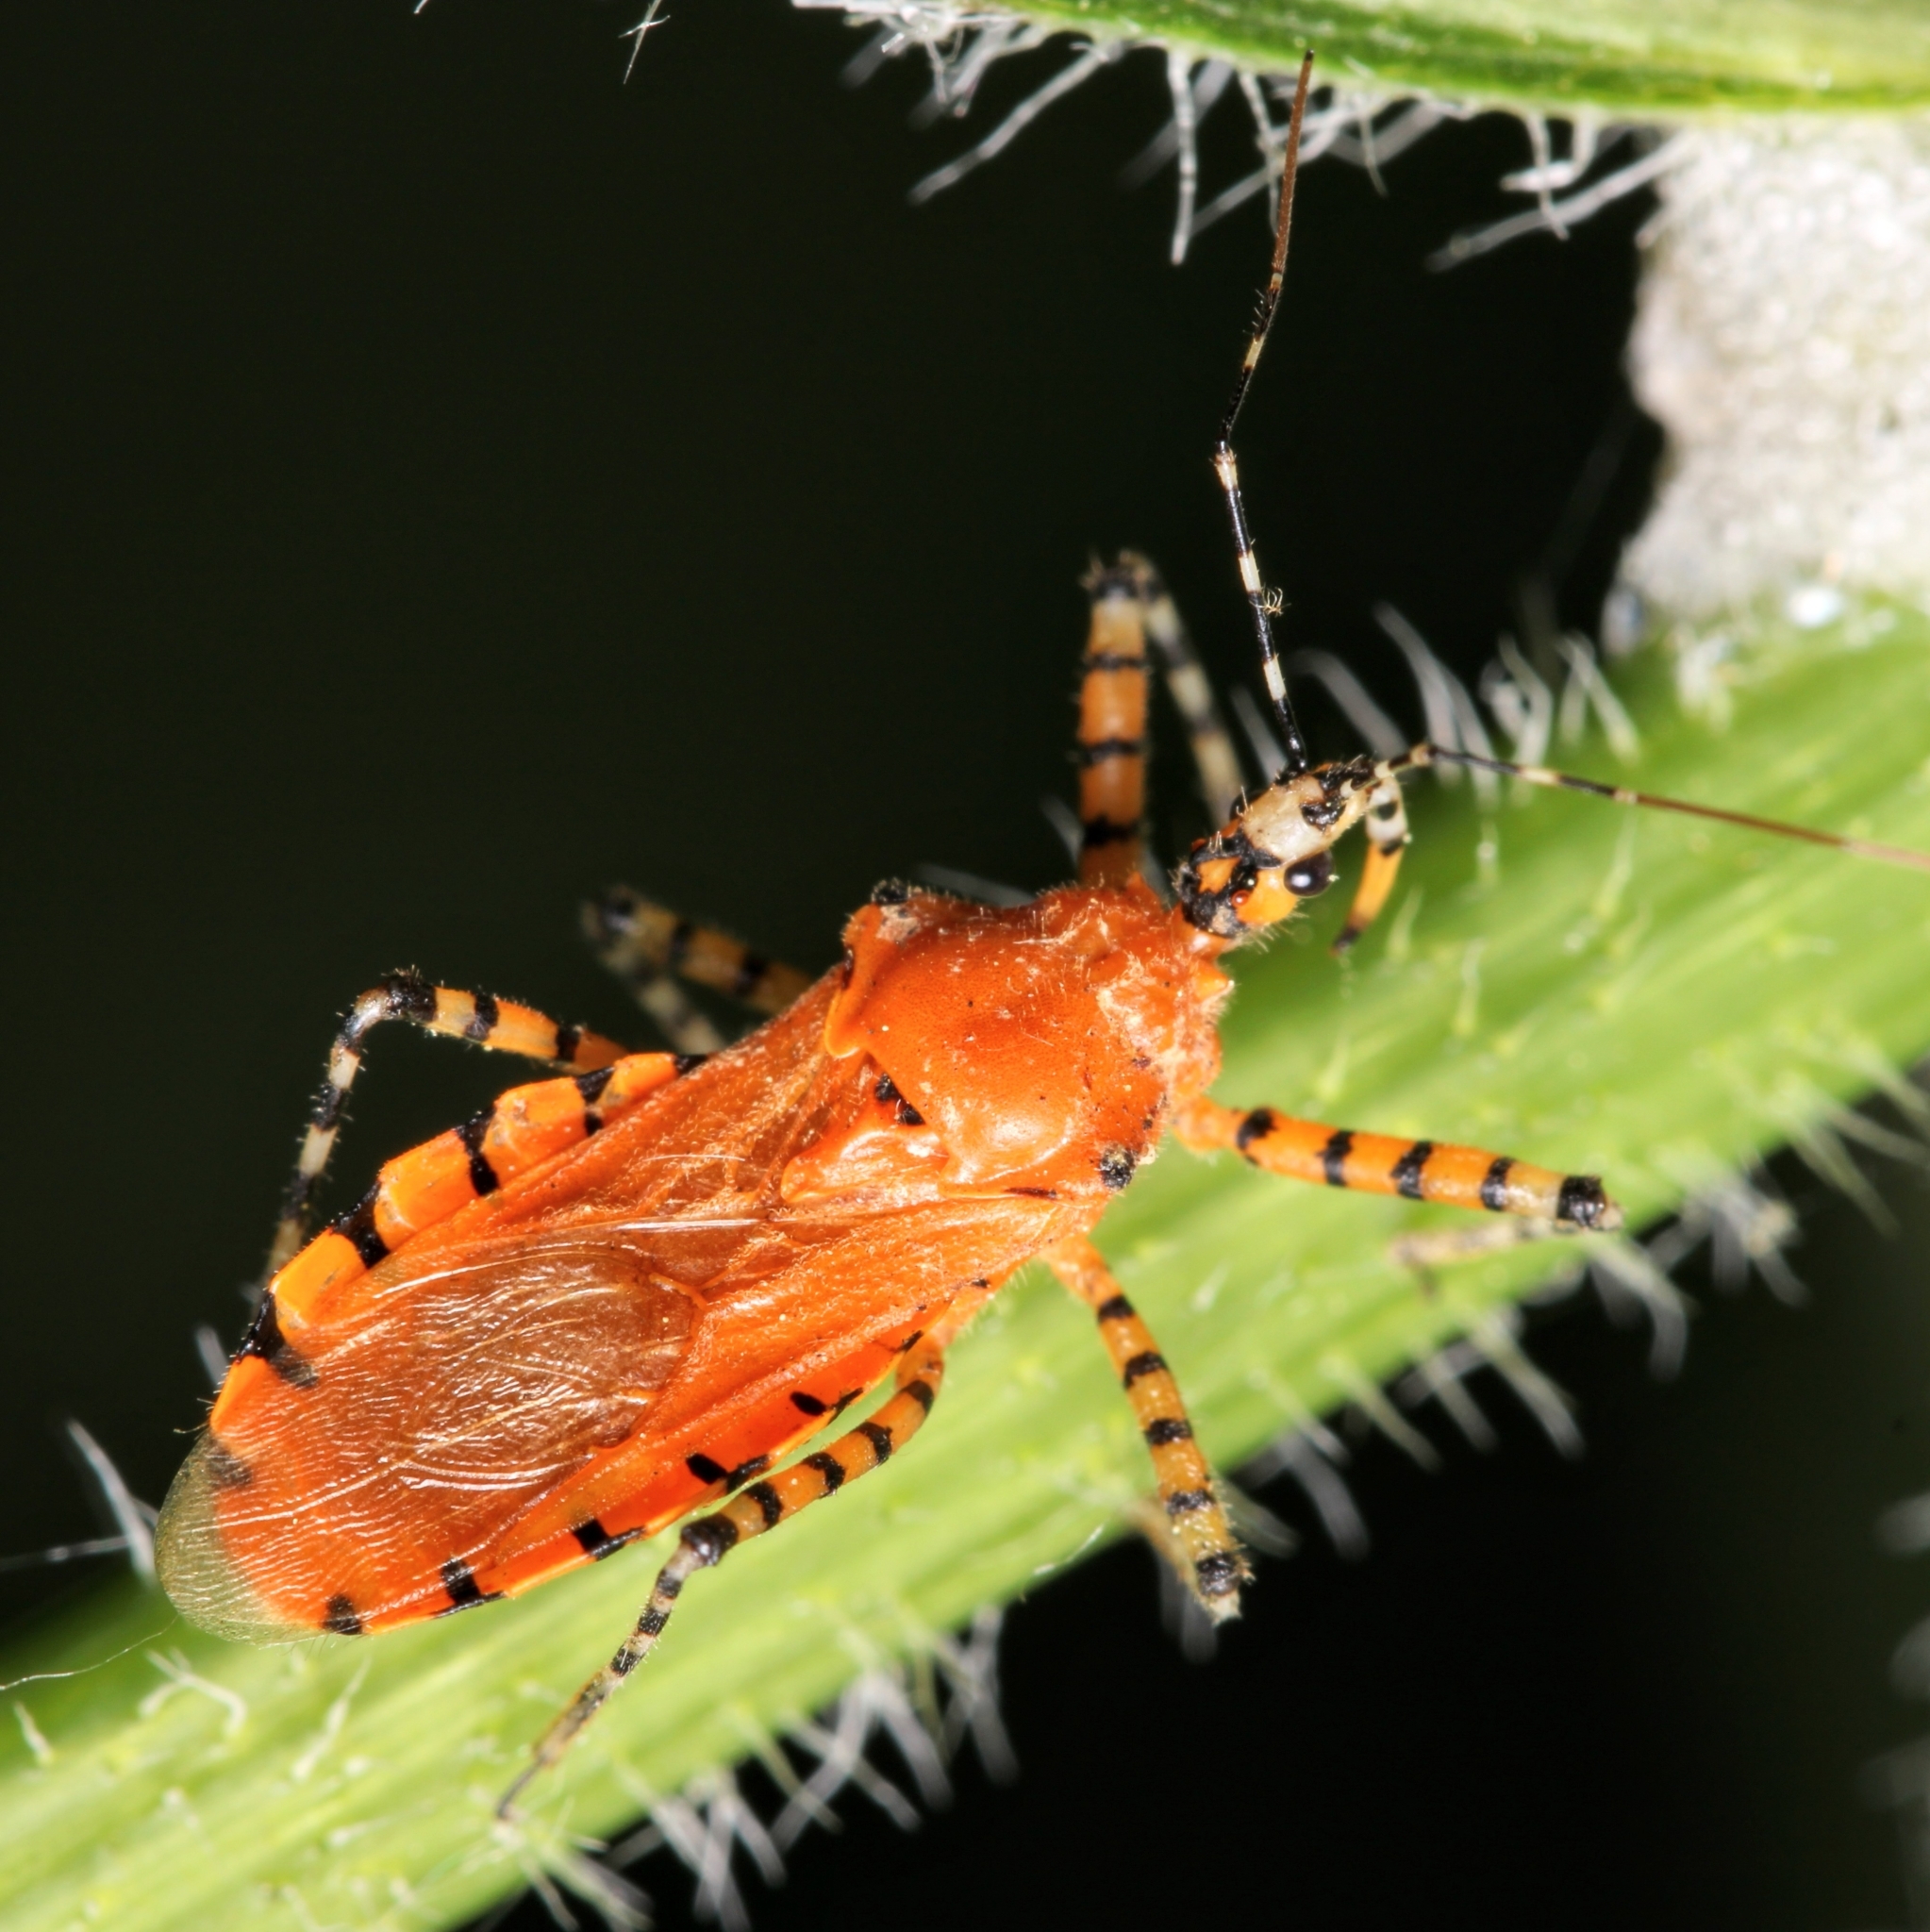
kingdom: Animalia
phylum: Arthropoda
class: Insecta
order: Hemiptera
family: Reduviidae
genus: Pselliopus
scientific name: Pselliopus barberi
